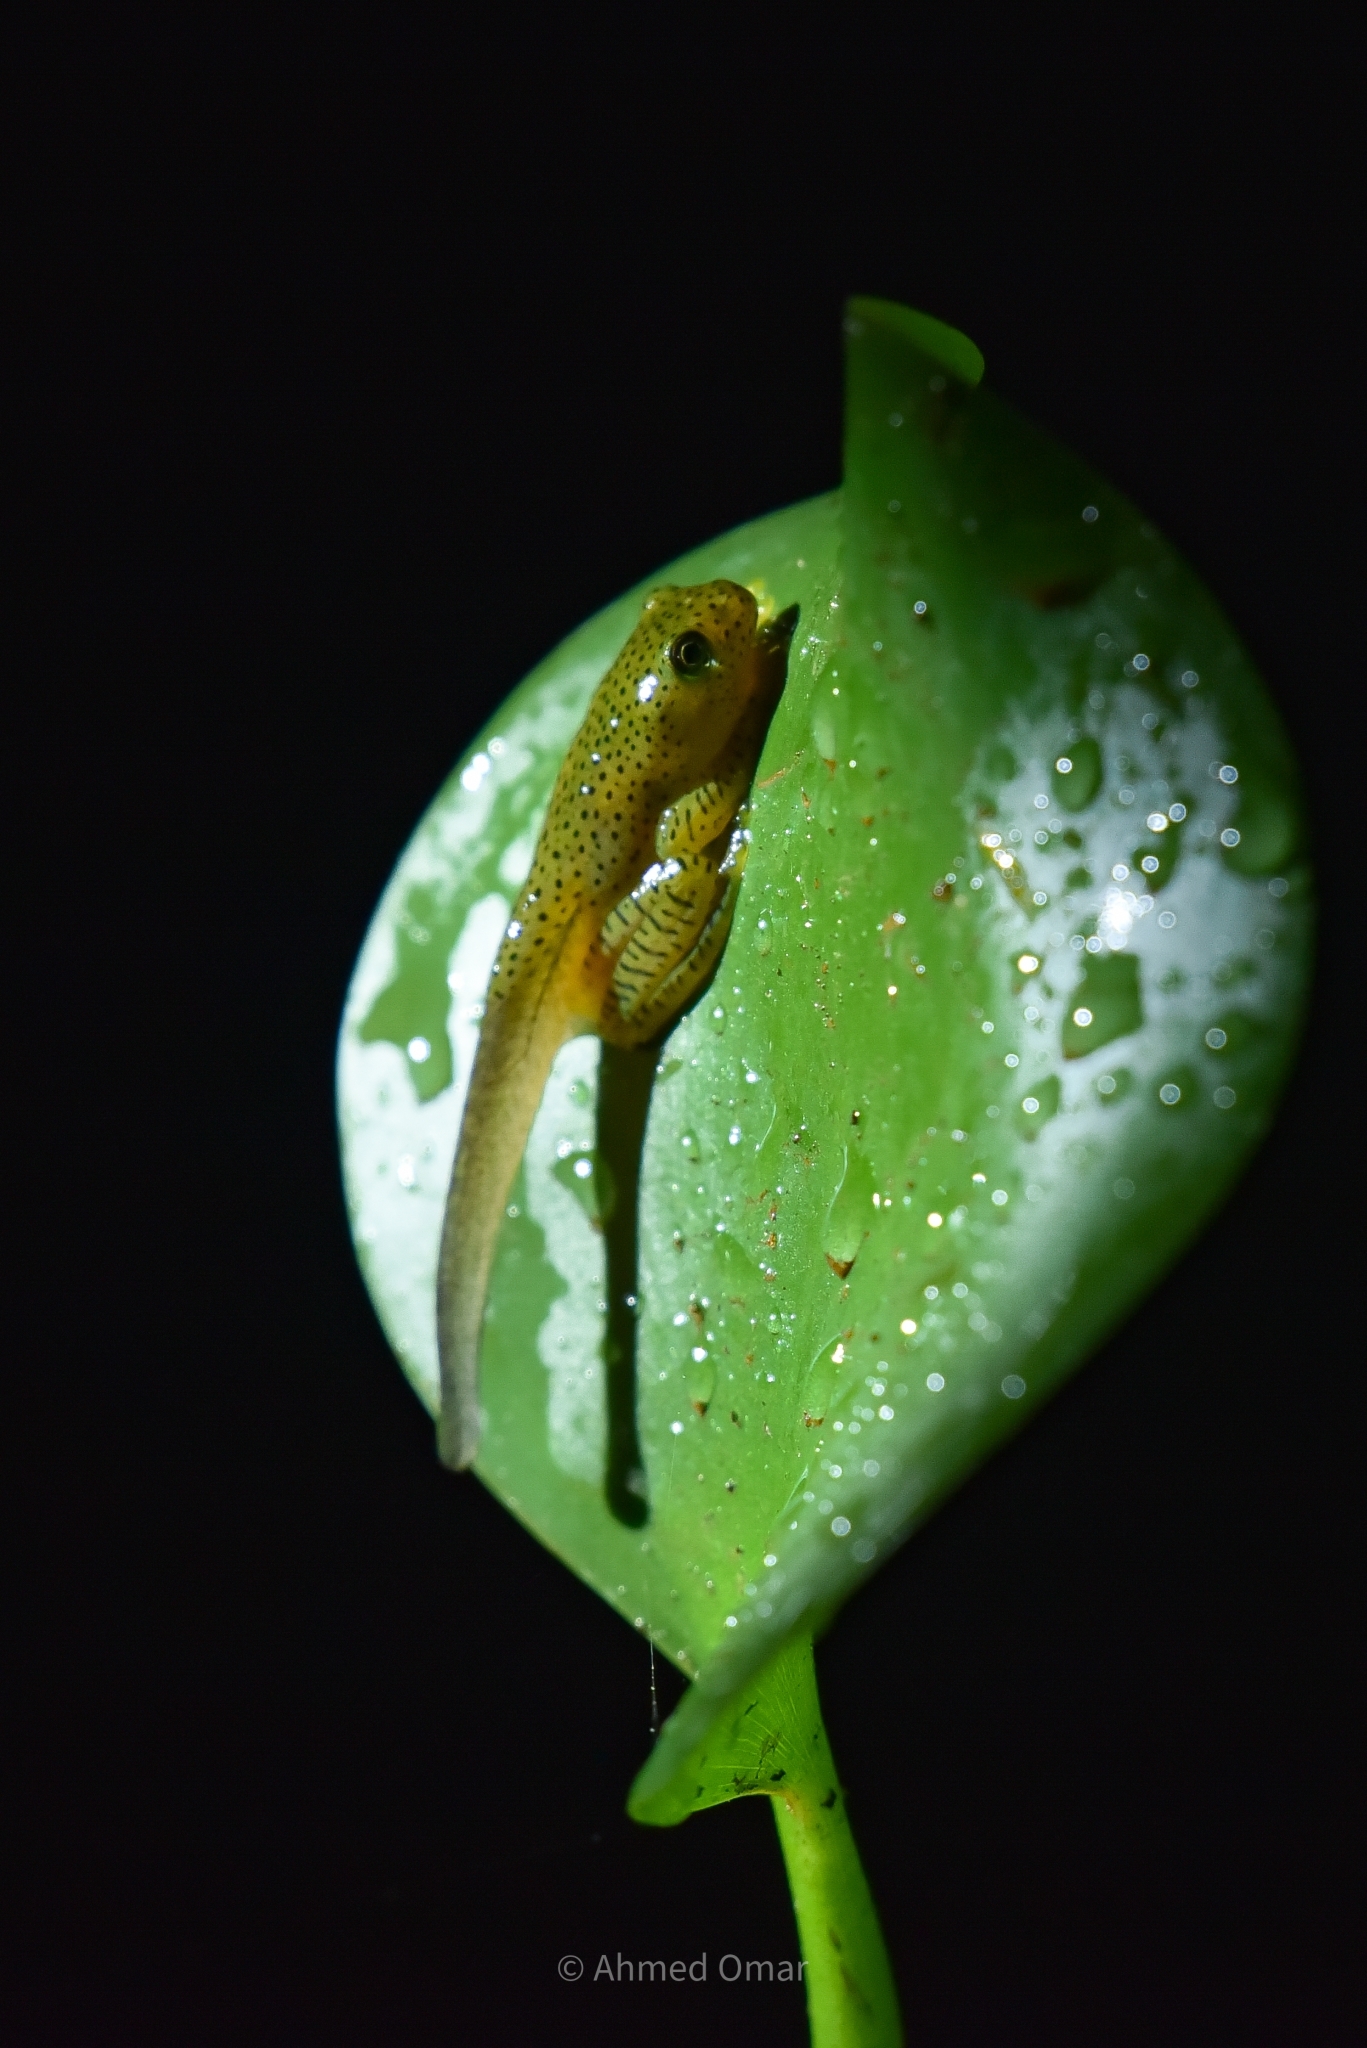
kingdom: Animalia
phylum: Chordata
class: Amphibia
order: Anura
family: Rhacophoridae
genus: Rhacophorus
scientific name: Rhacophorus malabaricus
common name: Malabar gliding frog
